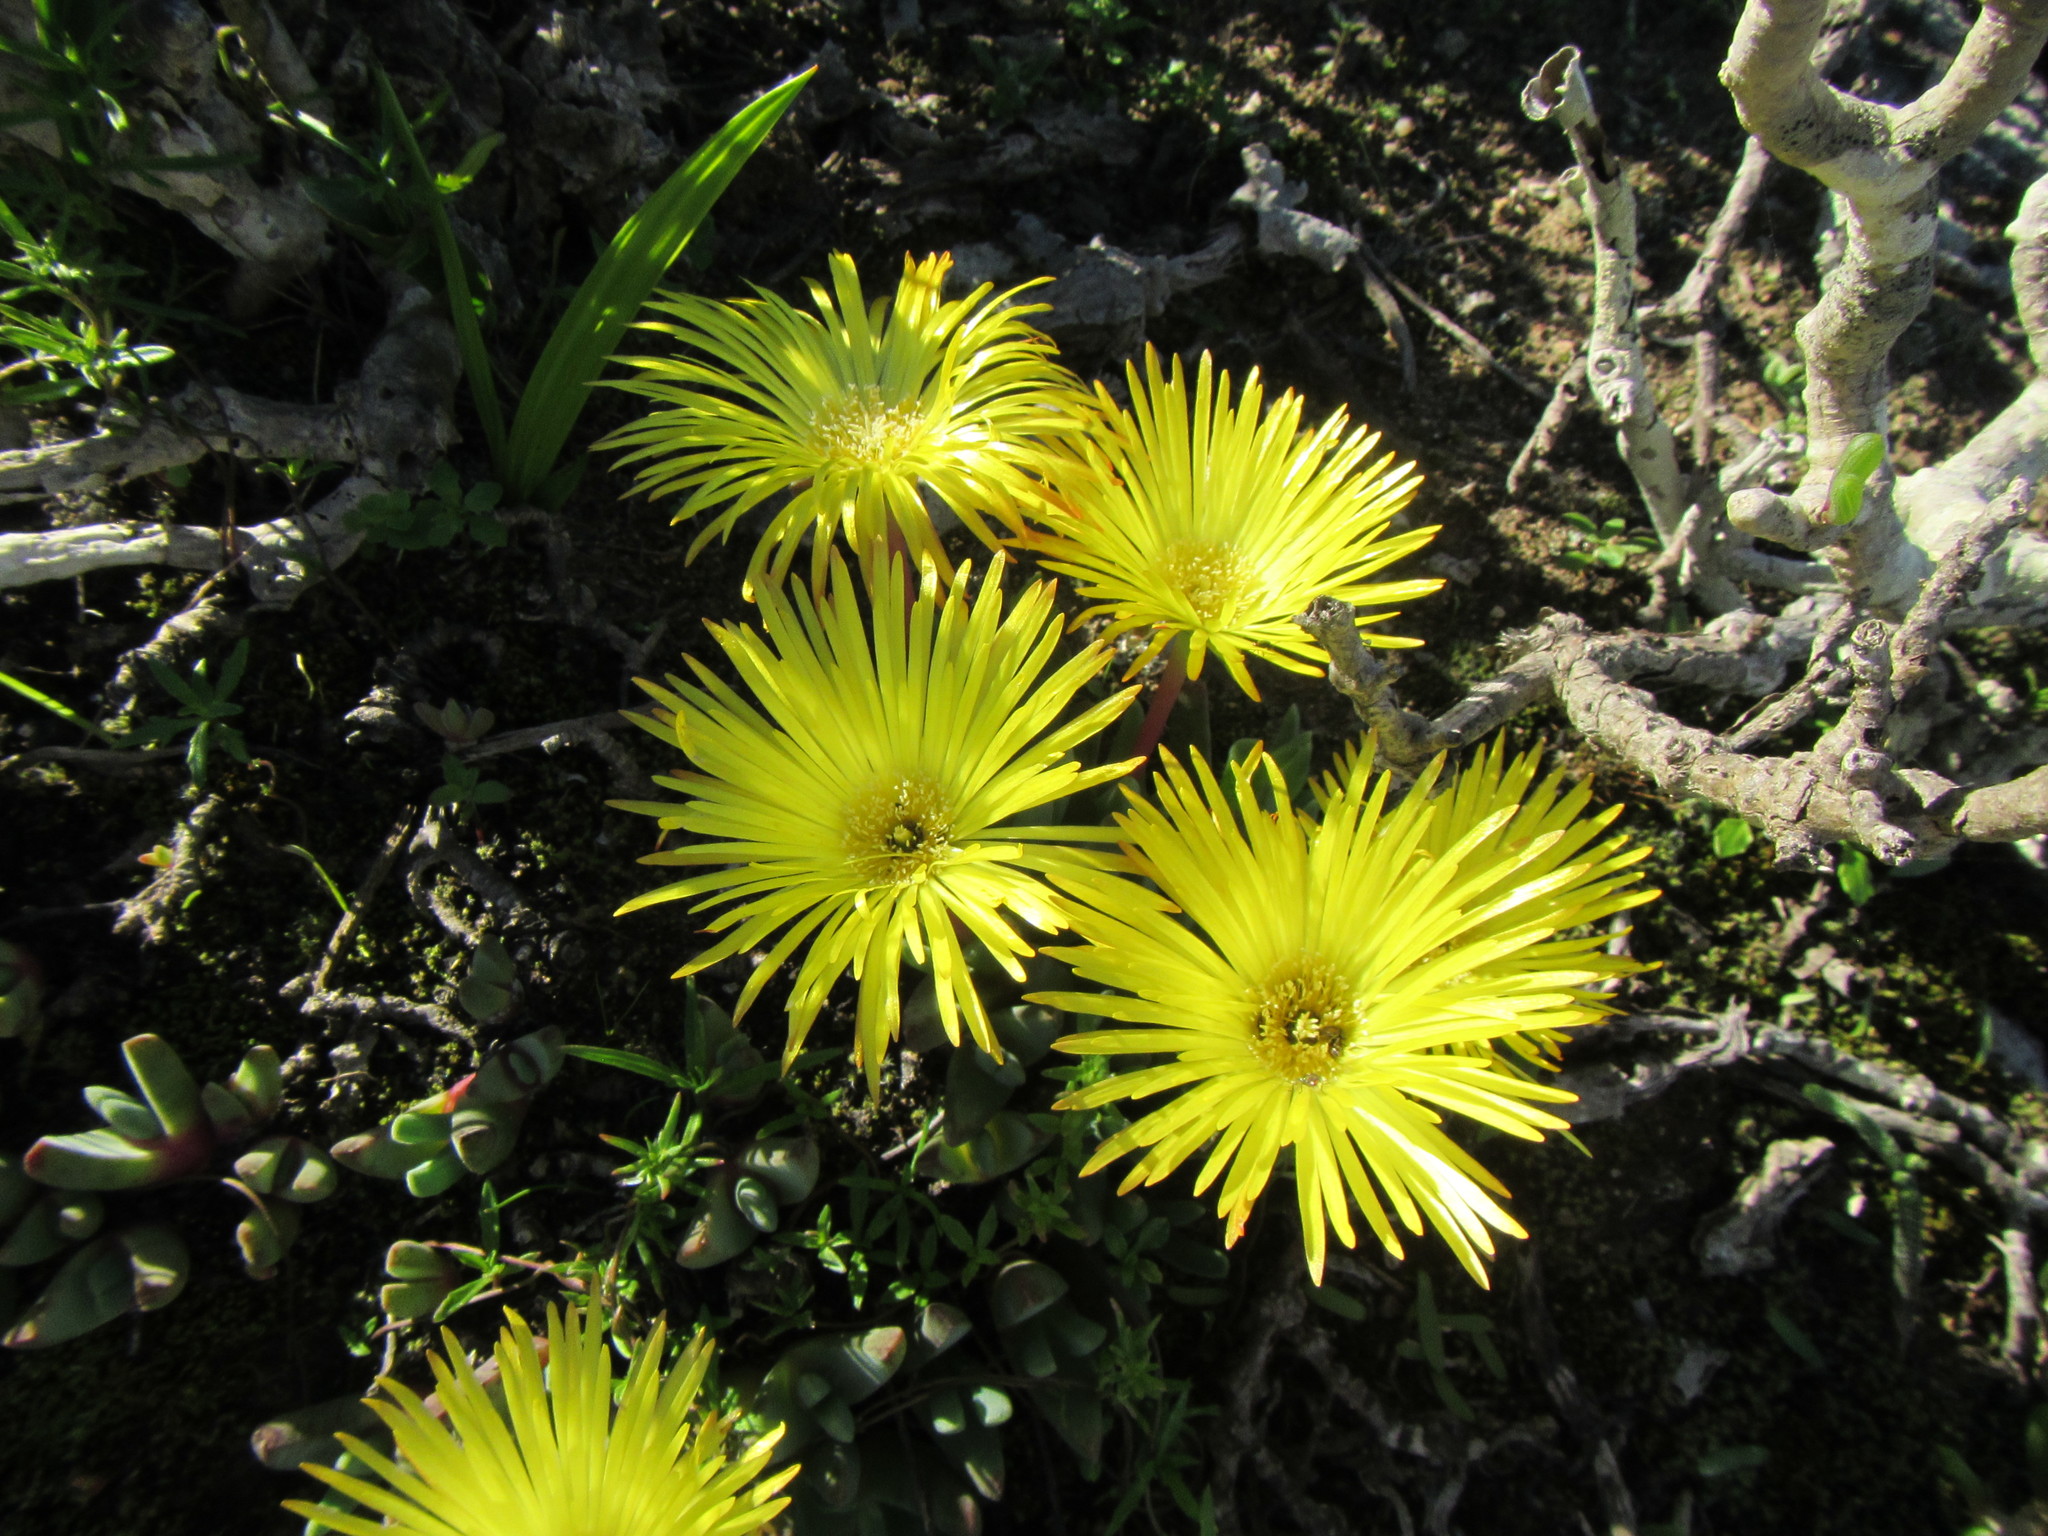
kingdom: Plantae
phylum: Tracheophyta
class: Magnoliopsida
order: Caryophyllales
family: Aizoaceae
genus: Cheiridopsis
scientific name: Cheiridopsis rostrata
